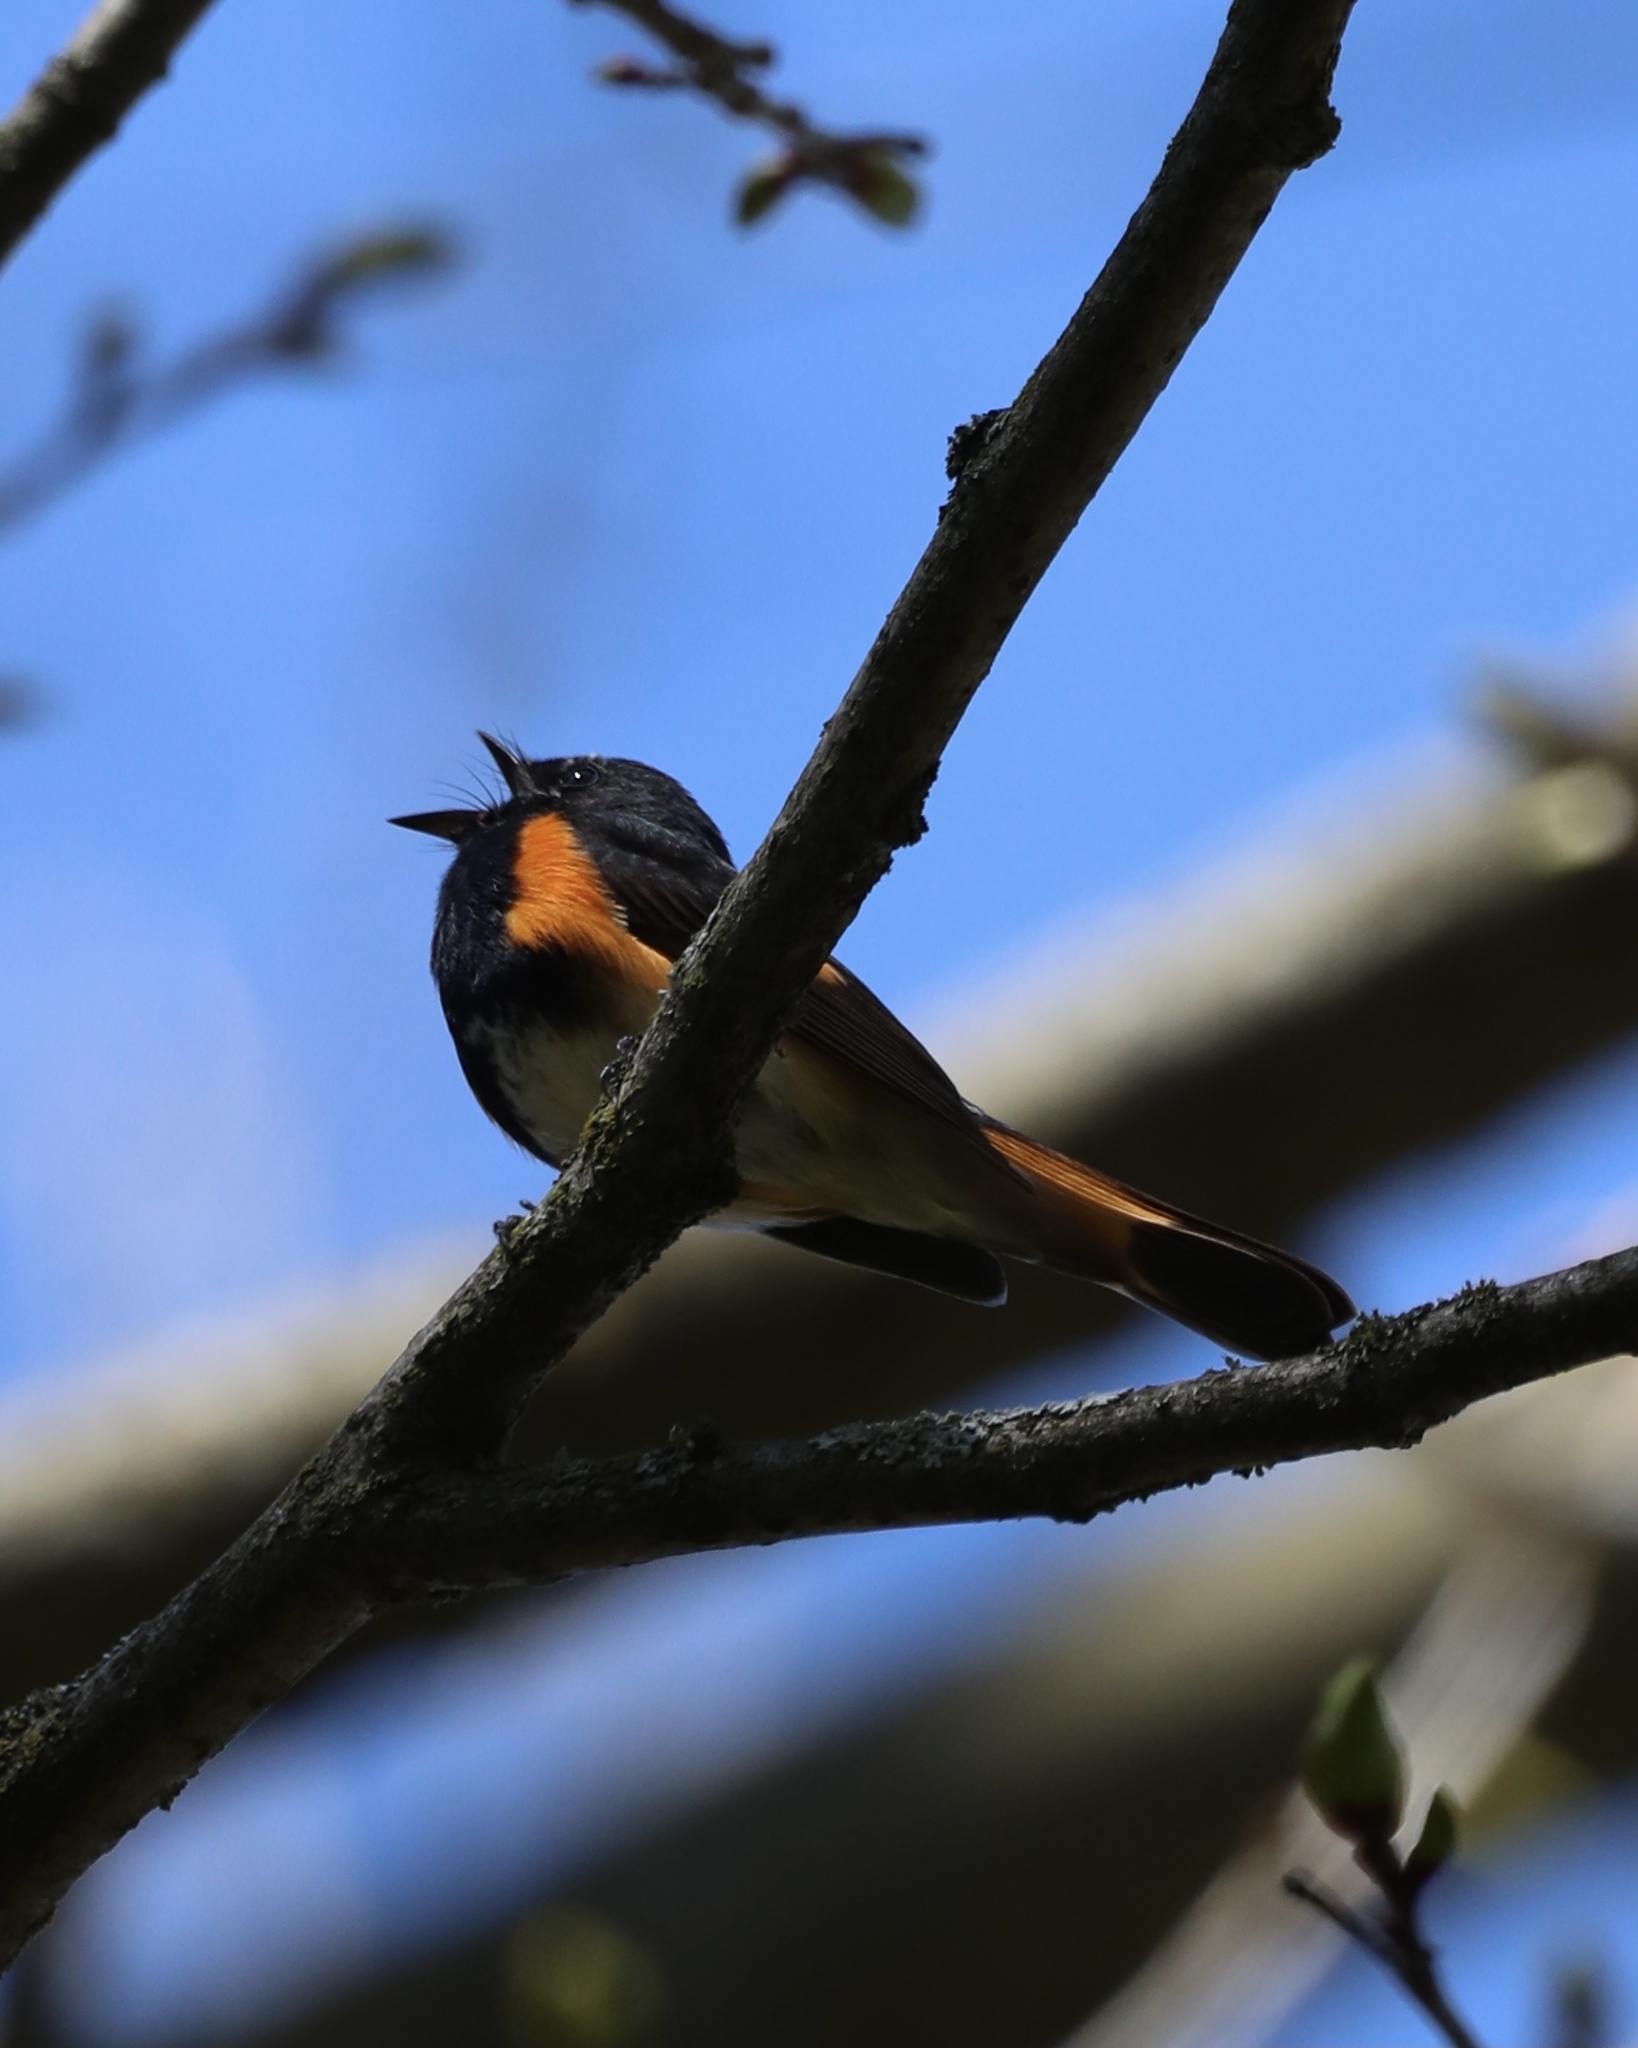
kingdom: Animalia
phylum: Chordata
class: Aves
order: Passeriformes
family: Parulidae
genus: Setophaga
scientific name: Setophaga ruticilla
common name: American redstart
